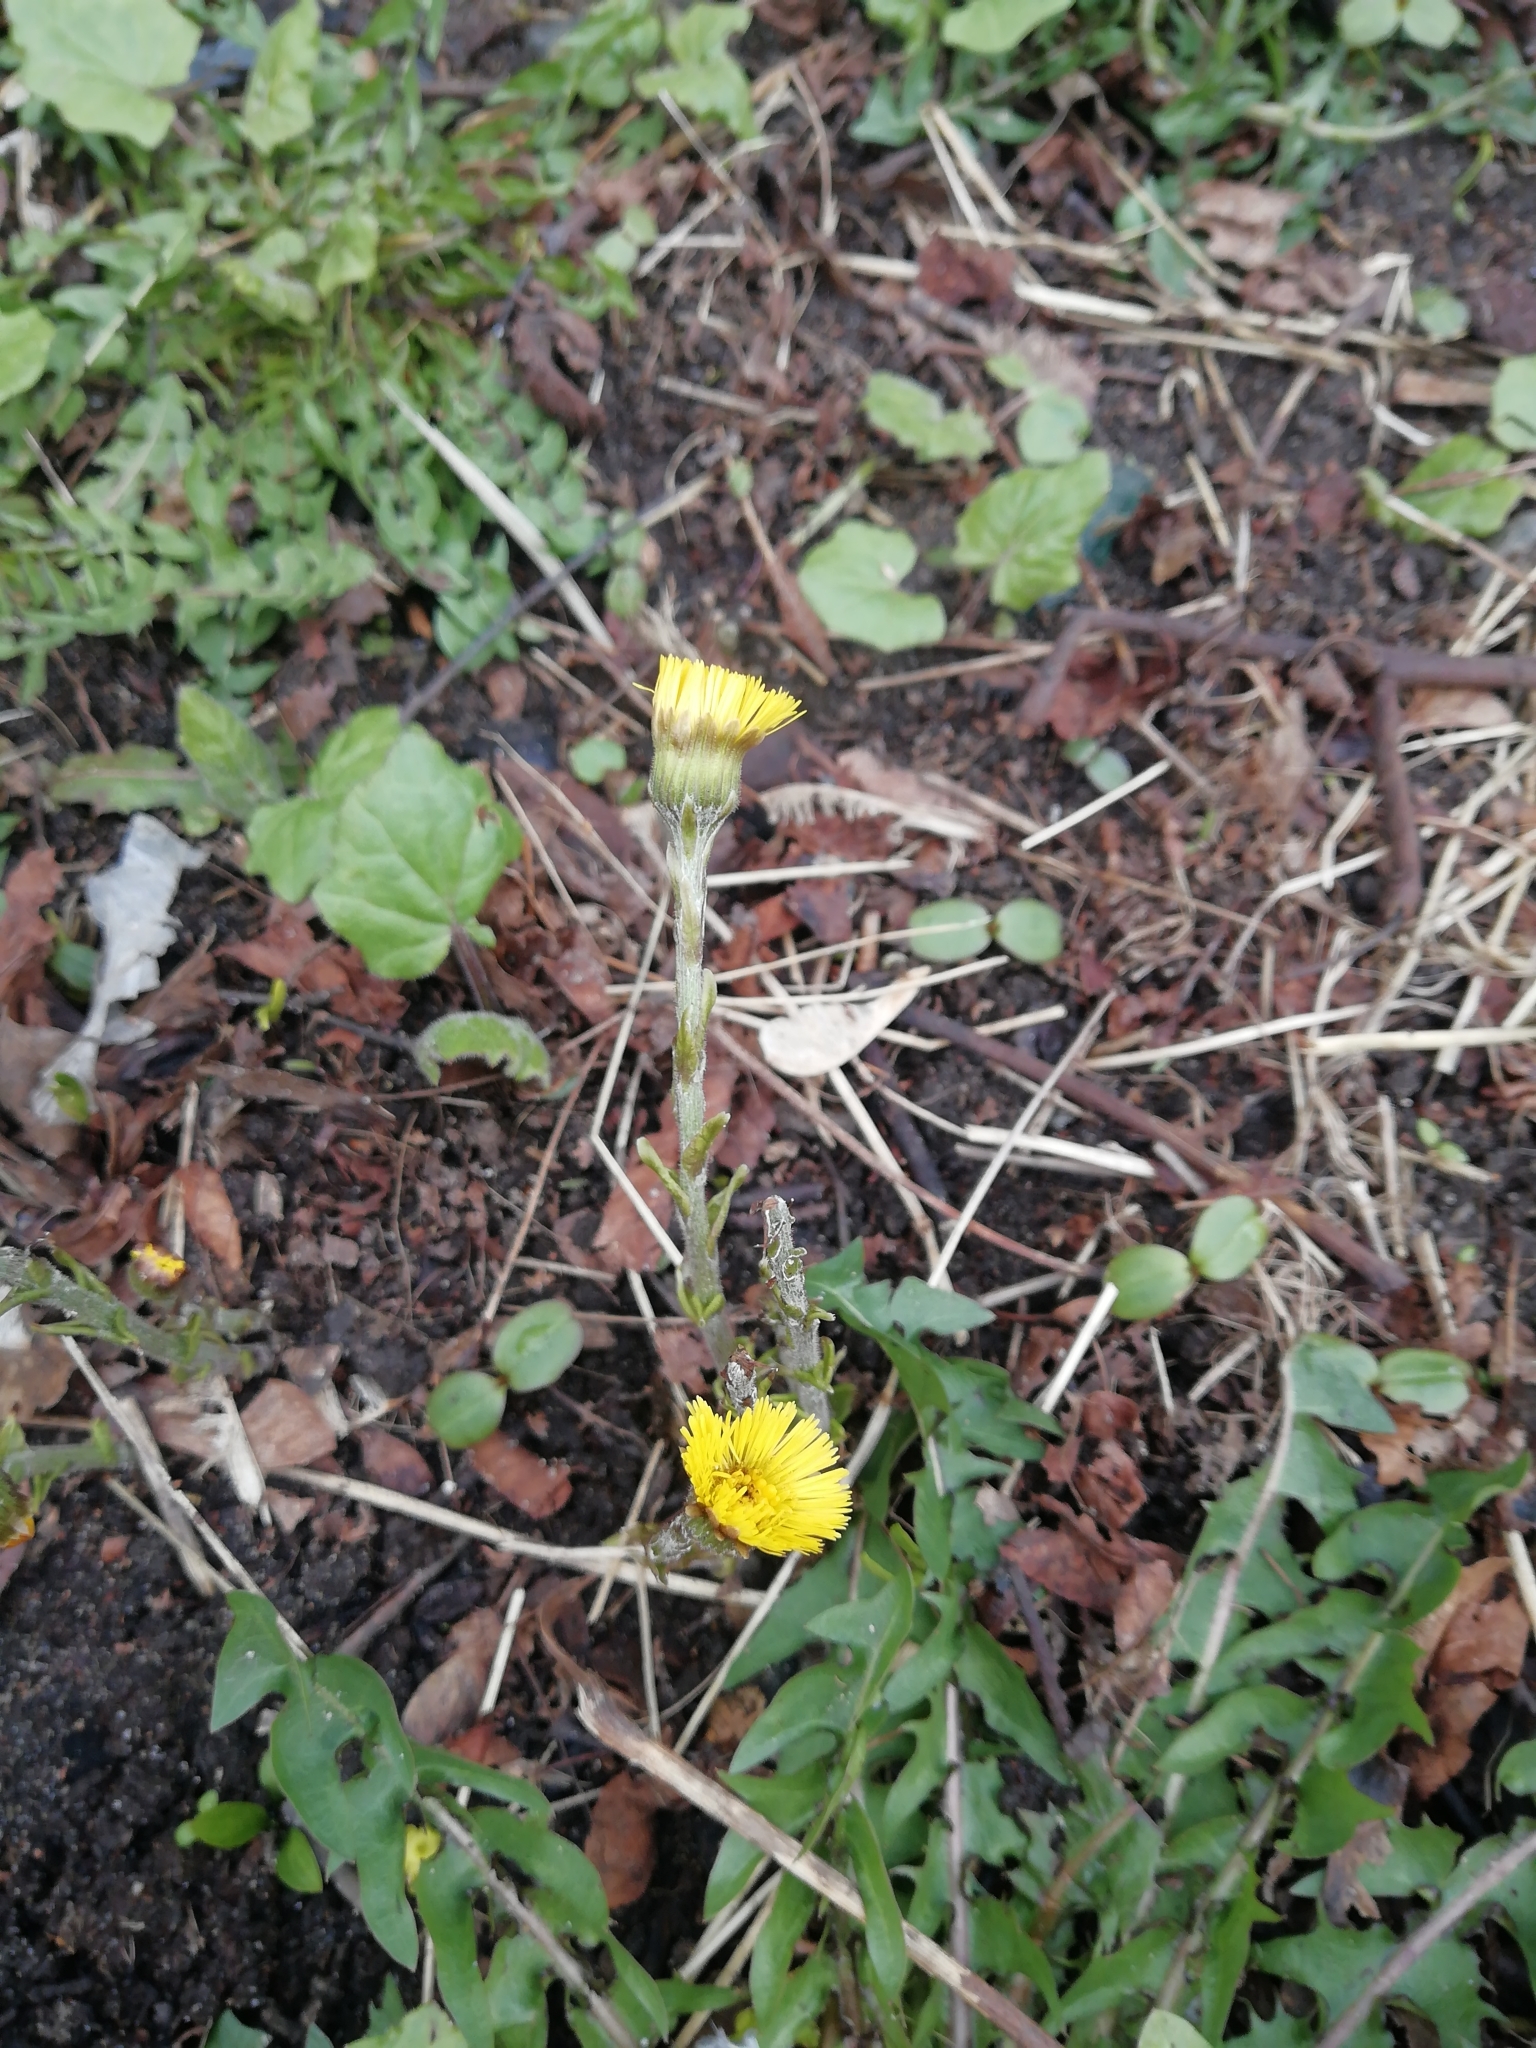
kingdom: Plantae
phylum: Tracheophyta
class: Magnoliopsida
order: Asterales
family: Asteraceae
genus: Tussilago
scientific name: Tussilago farfara
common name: Coltsfoot
